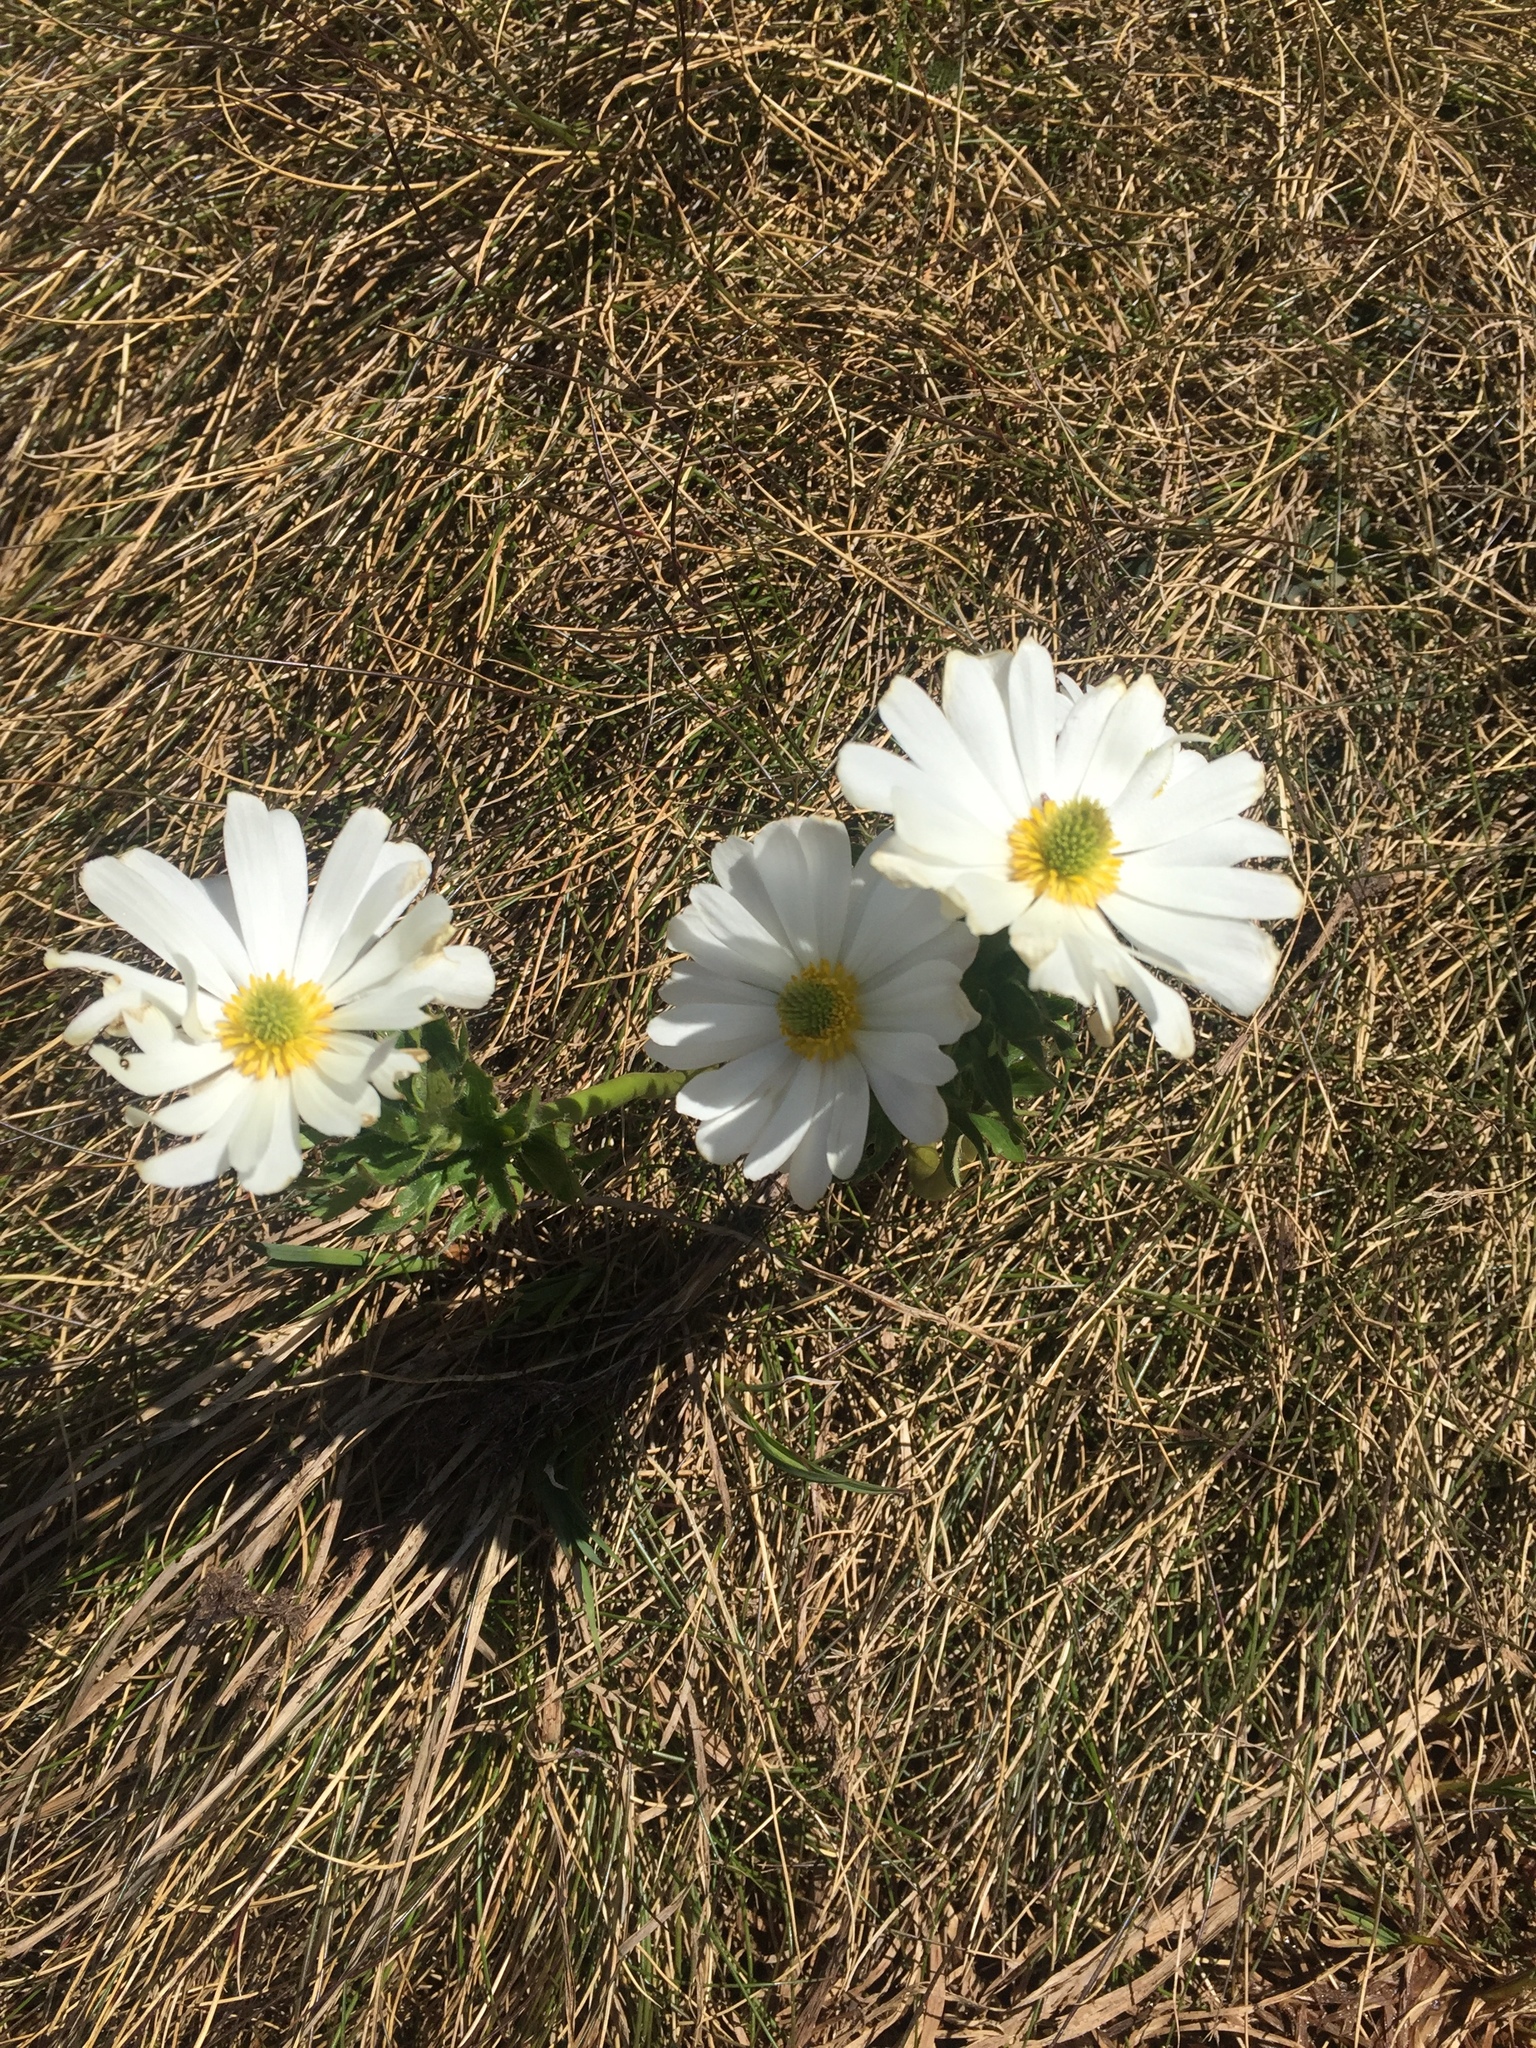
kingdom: Plantae
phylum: Tracheophyta
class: Magnoliopsida
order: Ranunculales
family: Ranunculaceae
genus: Ranunculus
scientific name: Ranunculus anemoneus
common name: Anemone buttercup
